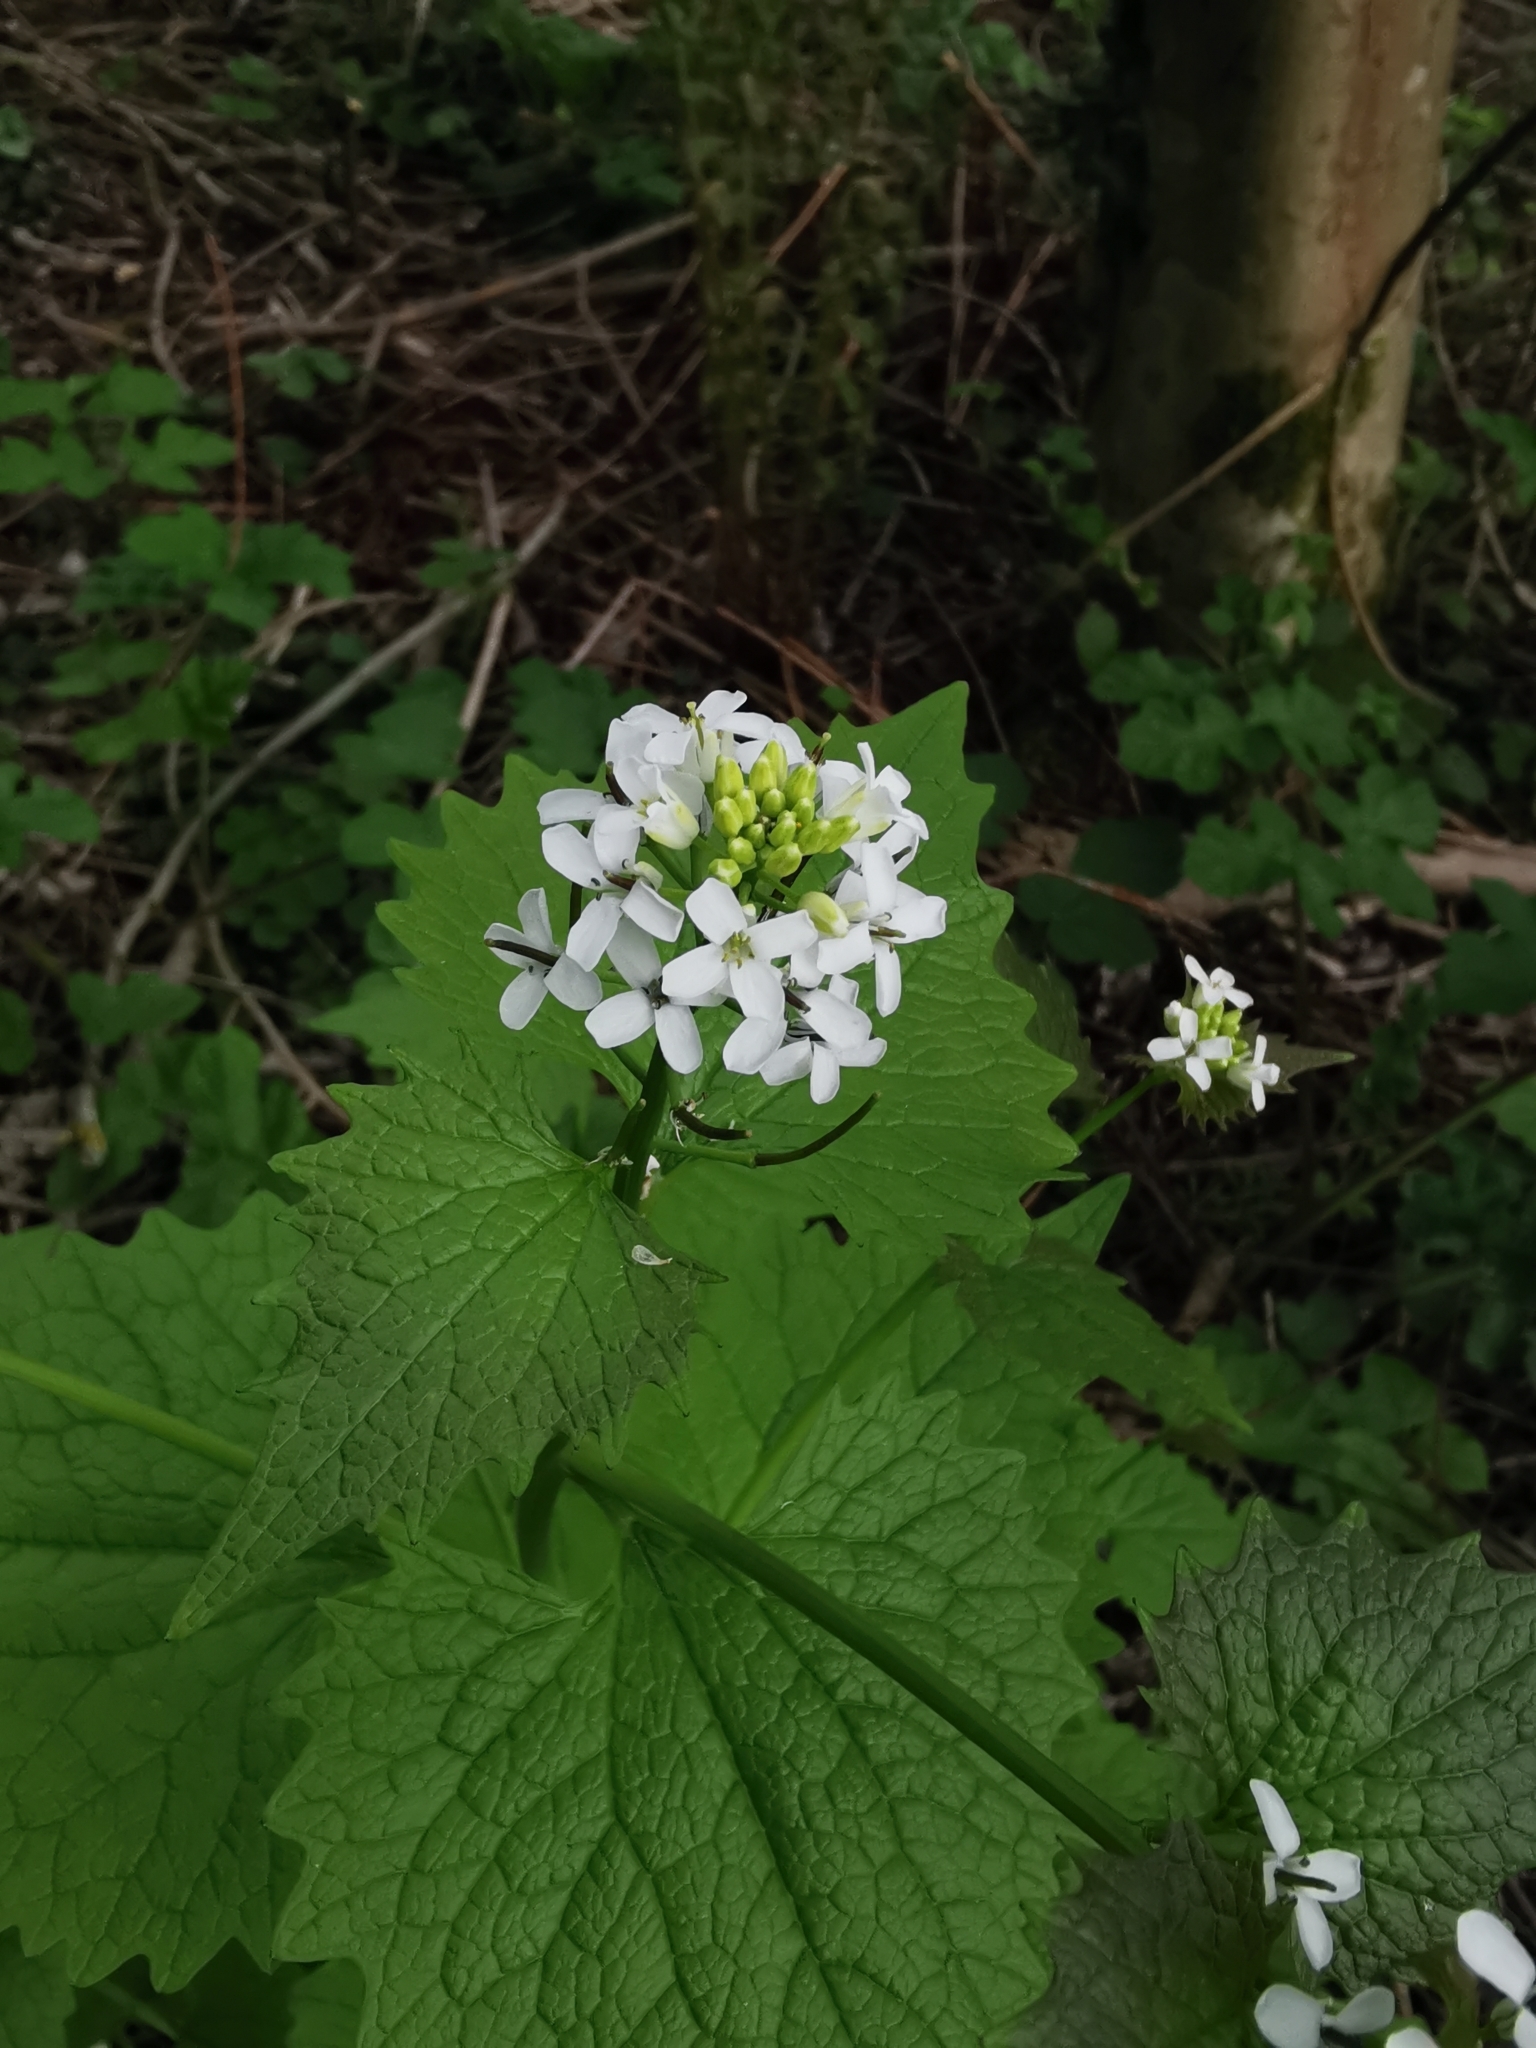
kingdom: Plantae
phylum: Tracheophyta
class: Magnoliopsida
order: Brassicales
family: Brassicaceae
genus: Alliaria
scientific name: Alliaria petiolata
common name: Garlic mustard
